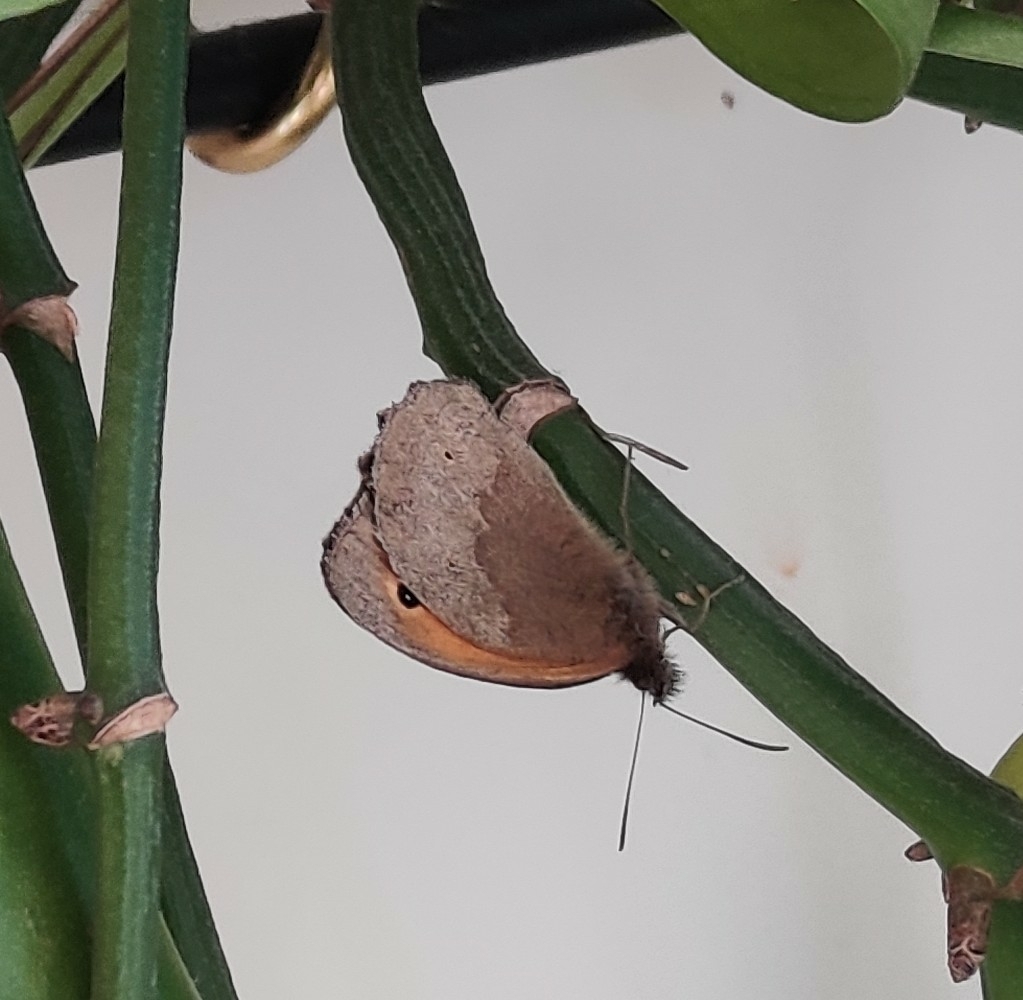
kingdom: Animalia
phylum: Arthropoda
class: Insecta
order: Lepidoptera
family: Nymphalidae
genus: Maniola
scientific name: Maniola jurtina
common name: Meadow brown
